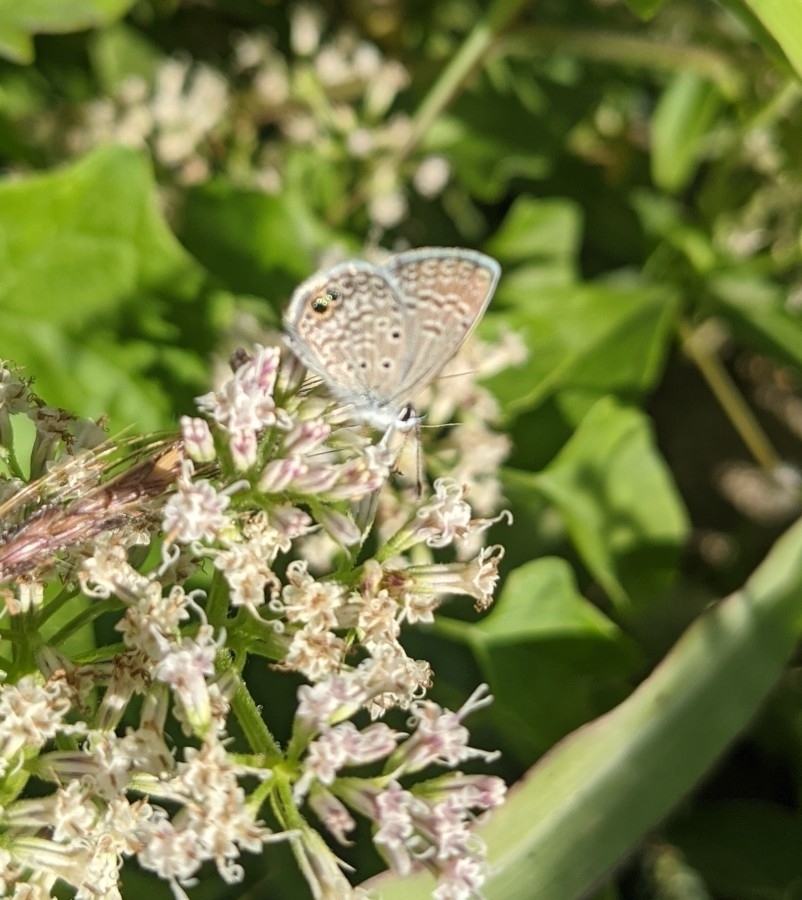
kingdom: Animalia
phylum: Arthropoda
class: Insecta
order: Lepidoptera
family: Lycaenidae
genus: Hemiargus
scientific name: Hemiargus ceraunus
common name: Ceraunus blue
